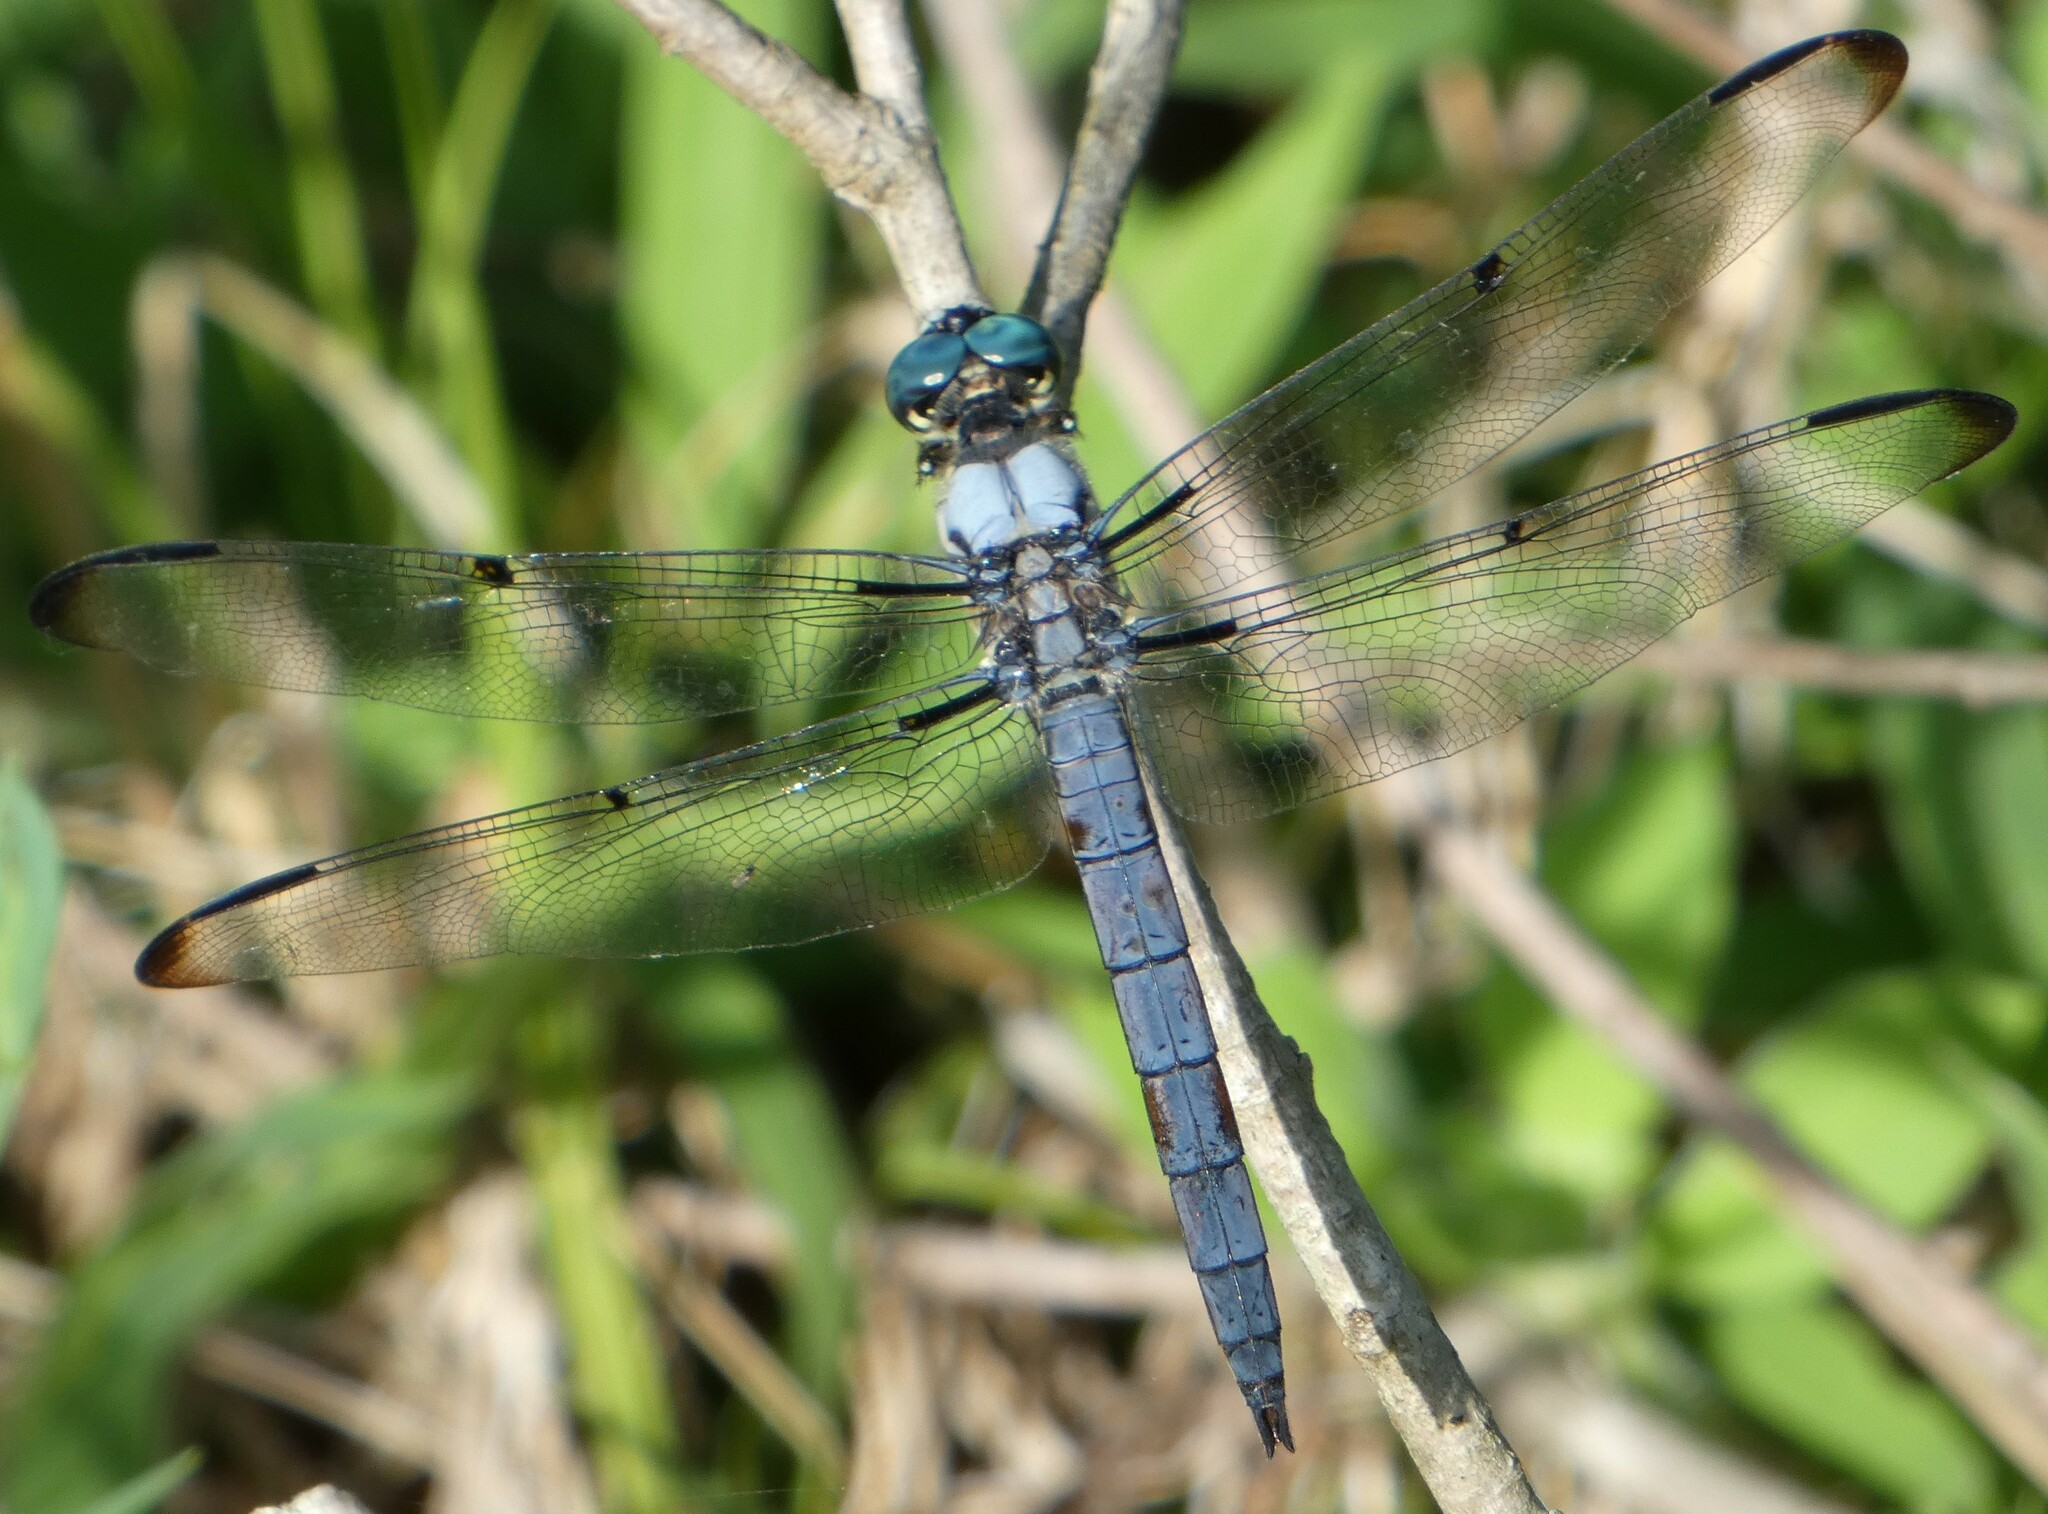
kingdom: Animalia
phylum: Arthropoda
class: Insecta
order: Odonata
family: Libellulidae
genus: Libellula
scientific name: Libellula vibrans
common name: Great blue skimmer
